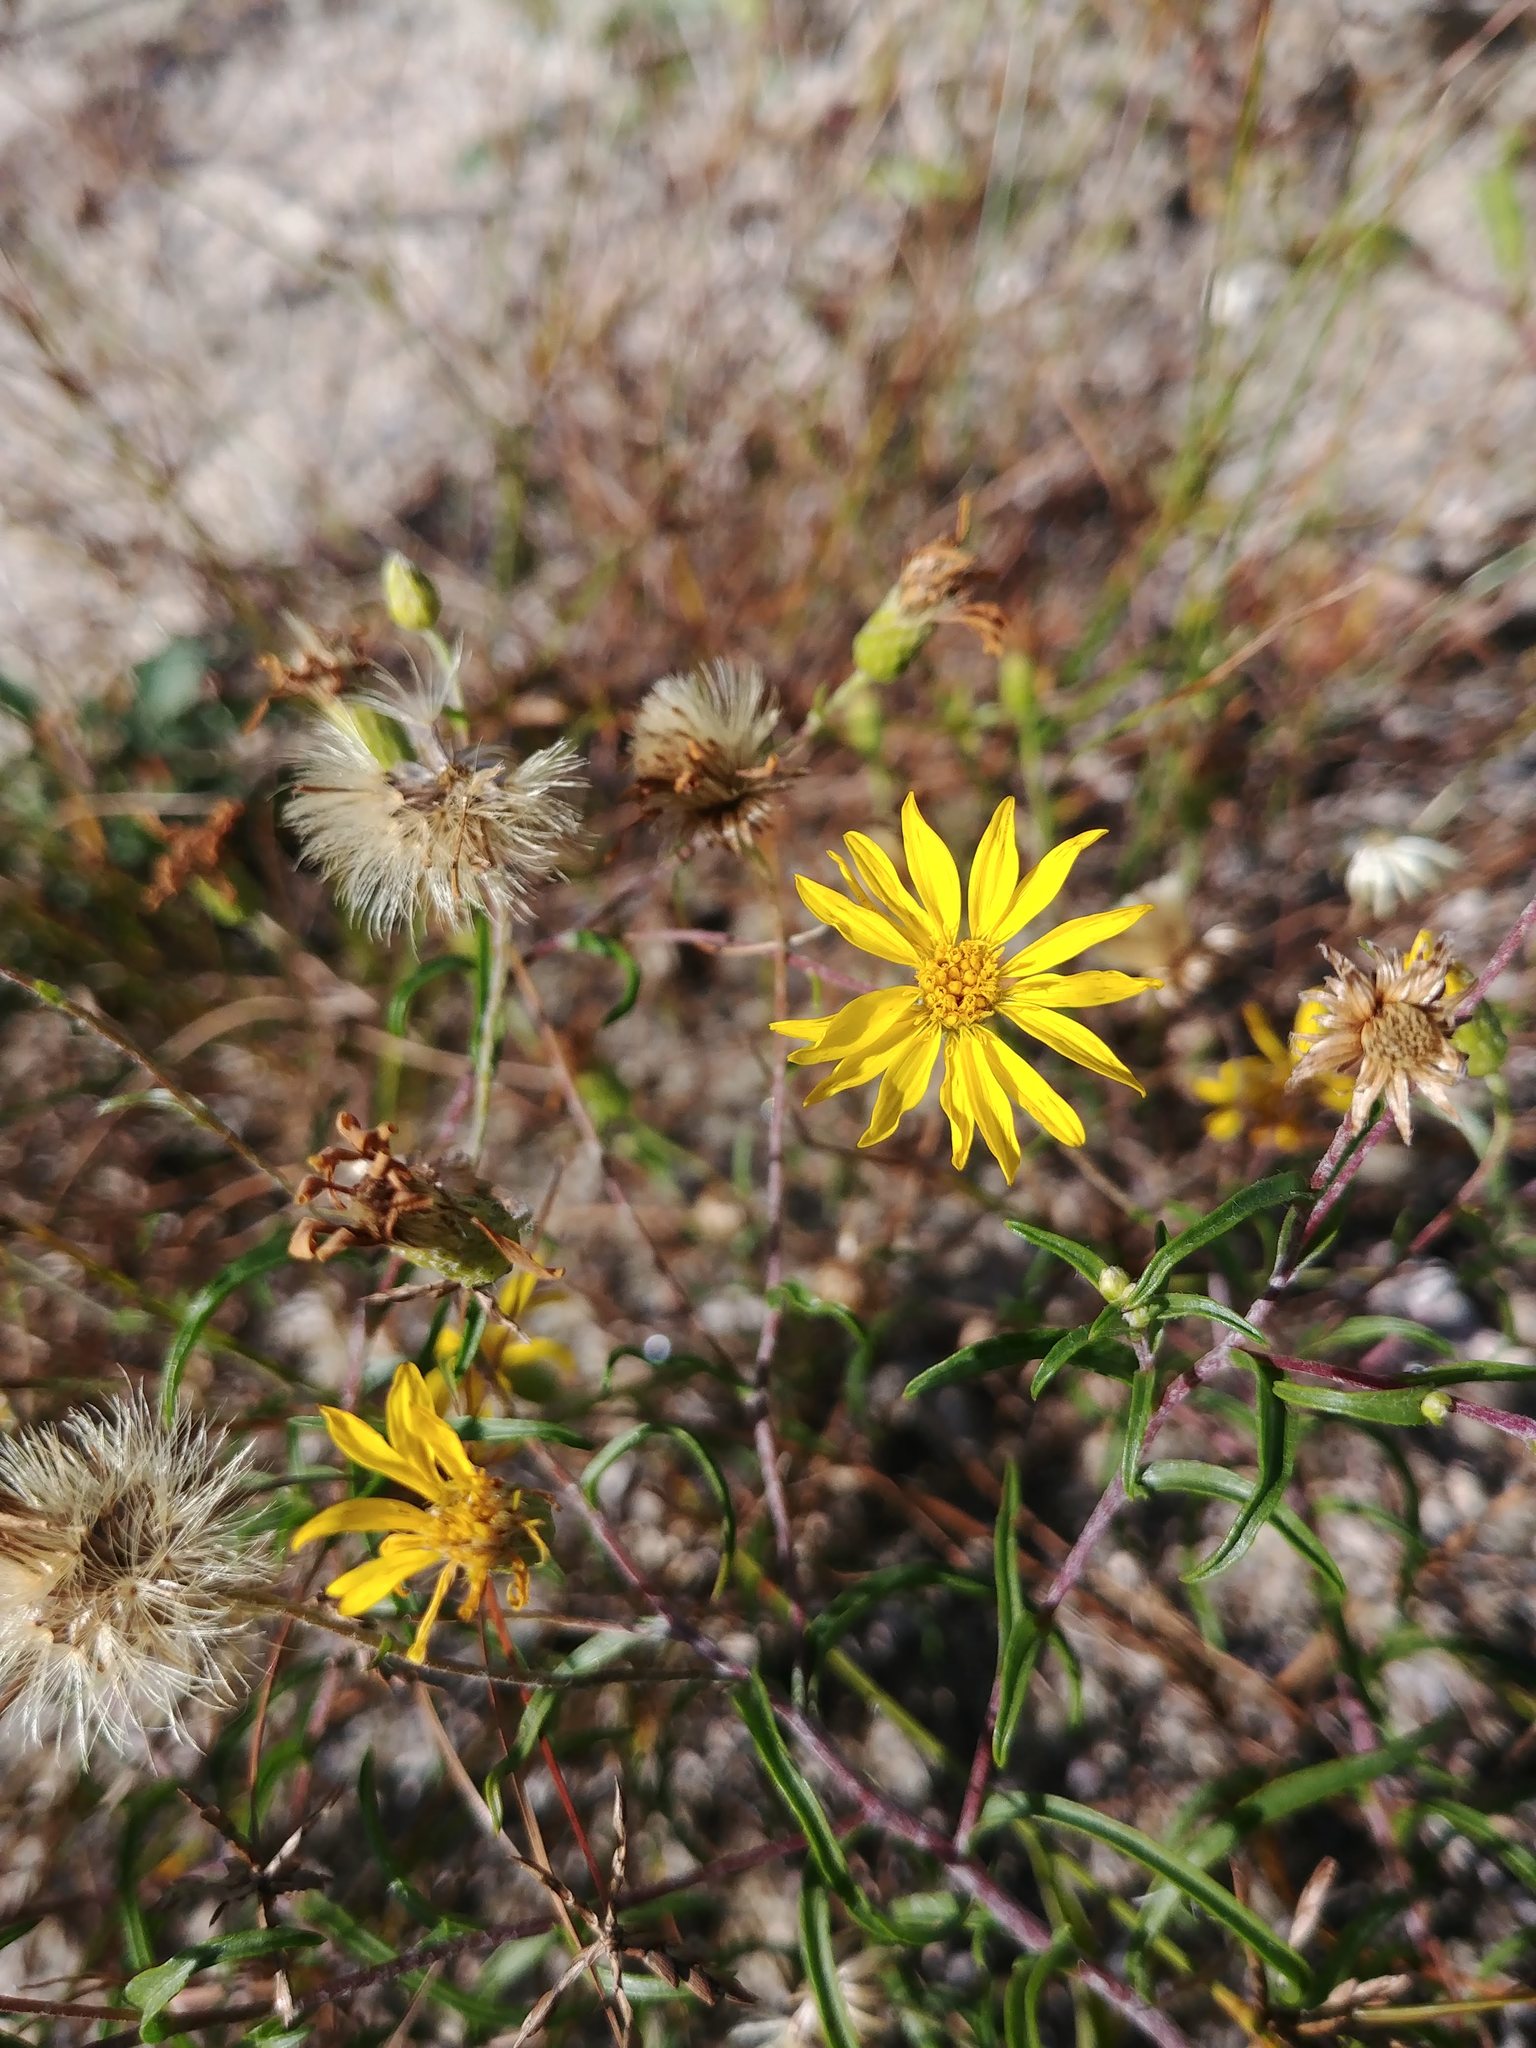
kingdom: Plantae
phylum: Tracheophyta
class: Magnoliopsida
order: Asterales
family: Asteraceae
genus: Pityopsis
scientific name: Pityopsis falcata
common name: Sickle-leaved goldenaster
